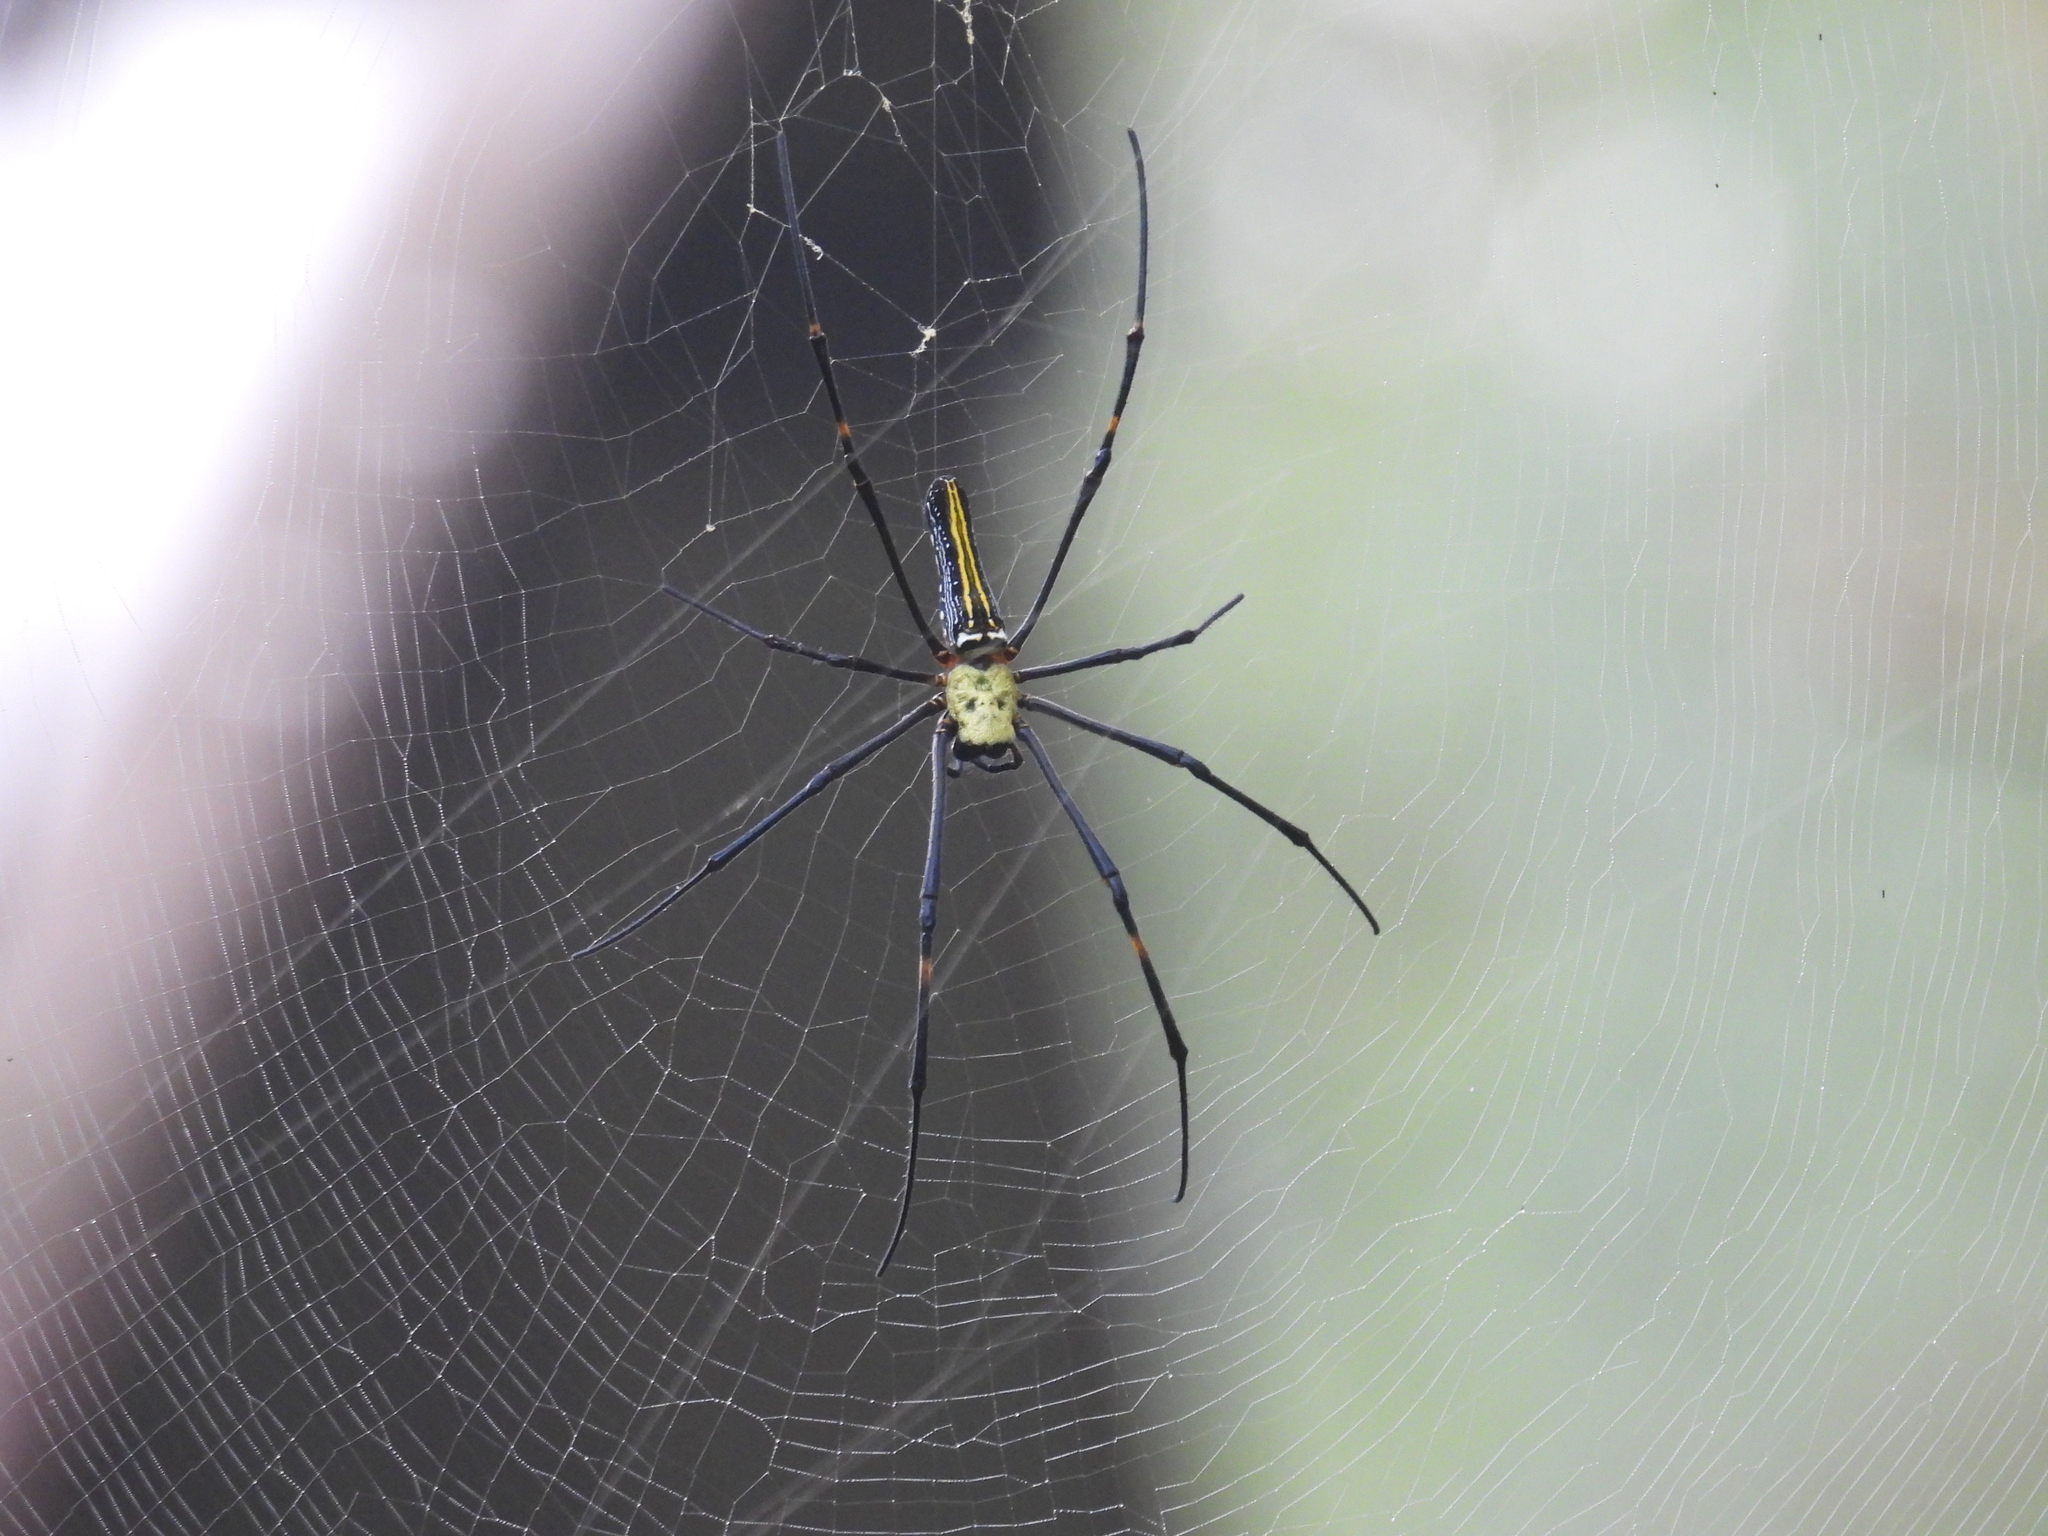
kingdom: Animalia
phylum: Arthropoda
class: Arachnida
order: Araneae
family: Araneidae
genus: Nephila
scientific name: Nephila pilipes
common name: Giant golden orb weaver
